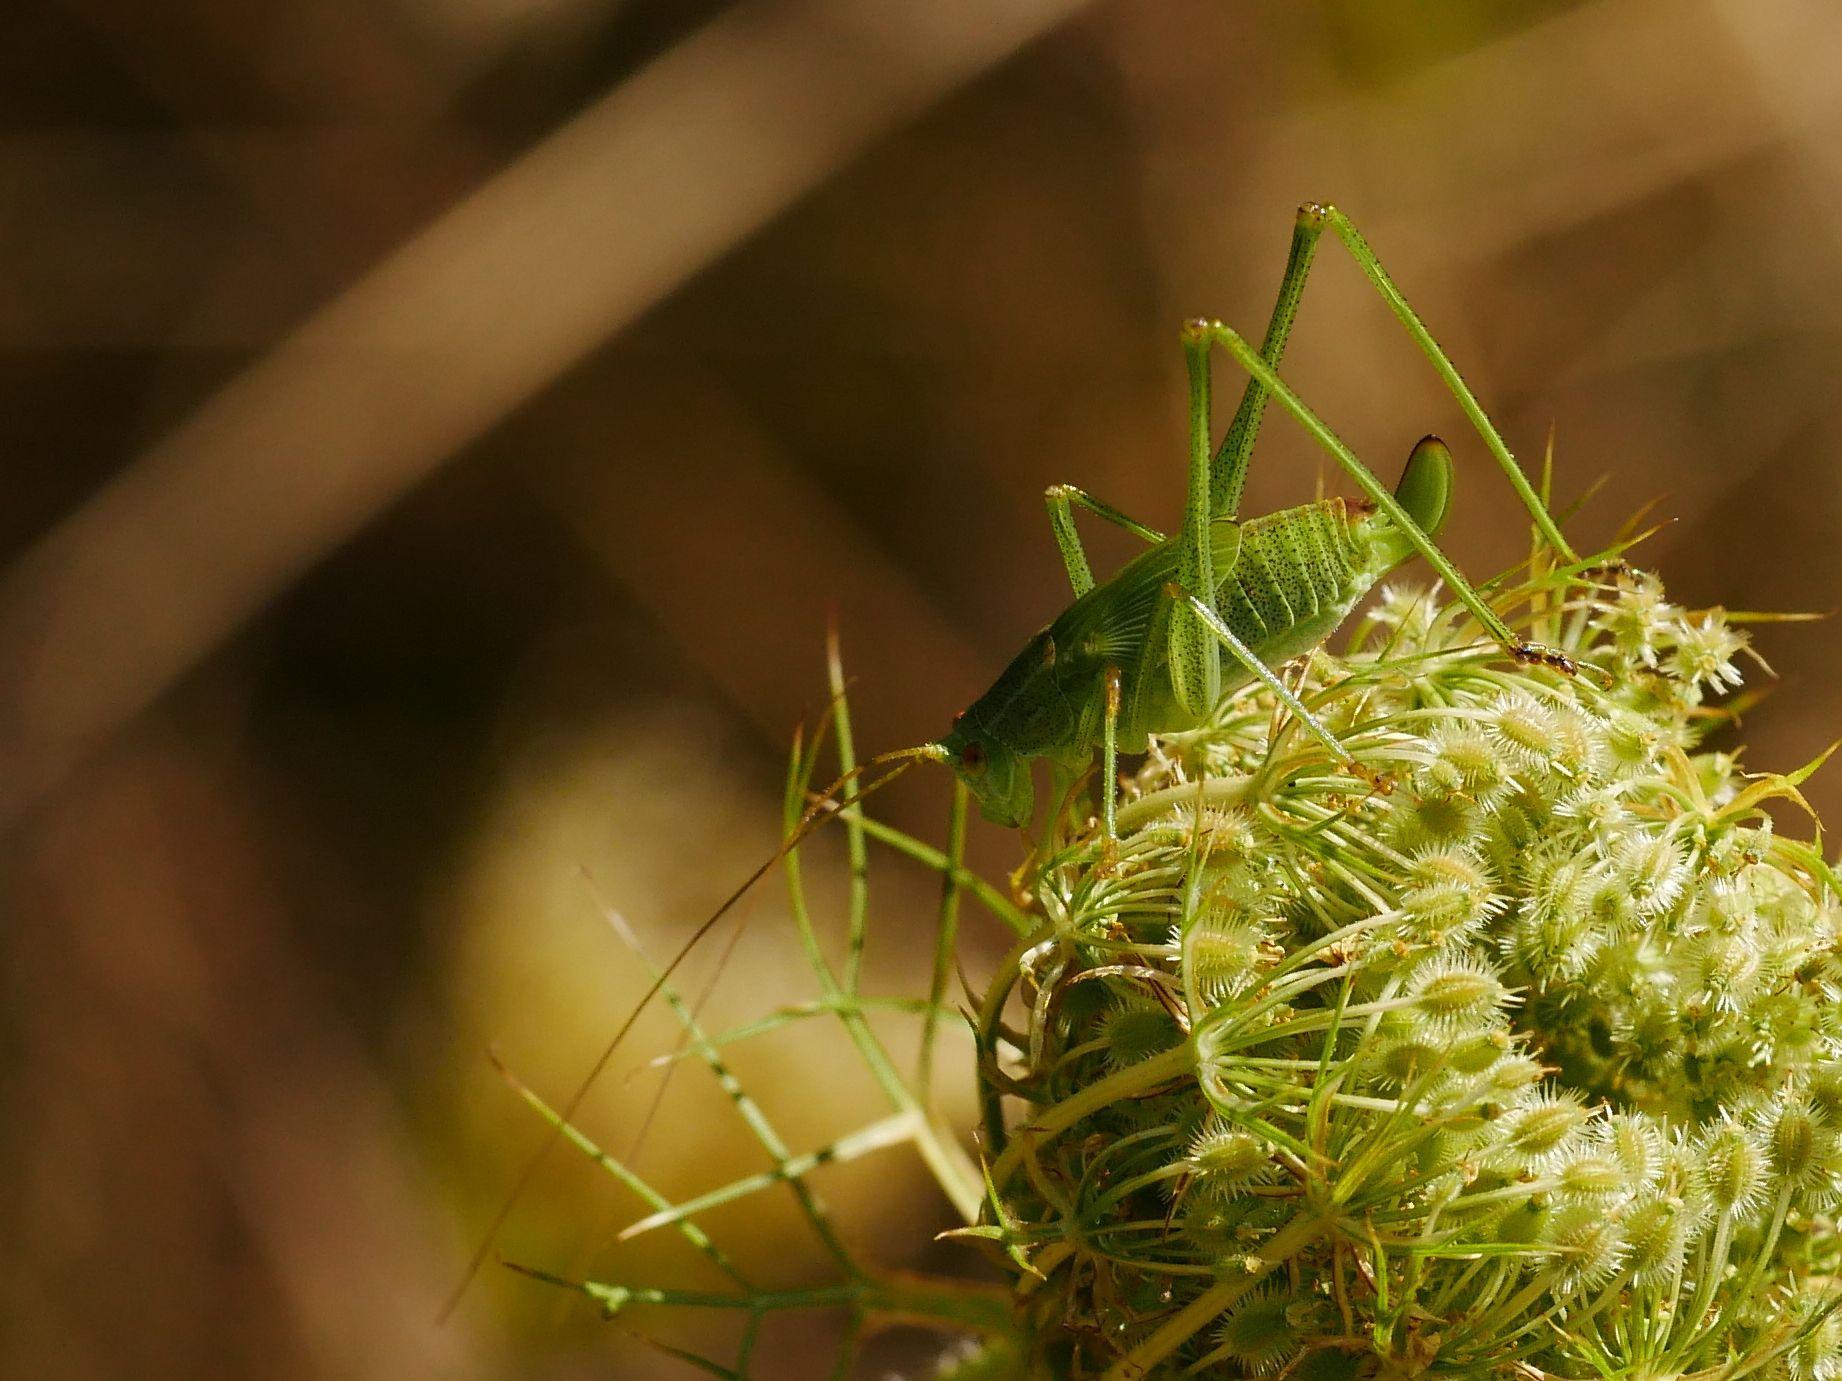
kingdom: Animalia
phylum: Arthropoda
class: Insecta
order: Orthoptera
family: Tettigoniidae
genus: Leptophyes
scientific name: Leptophyes punctatissima
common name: Speckled bush-cricket
